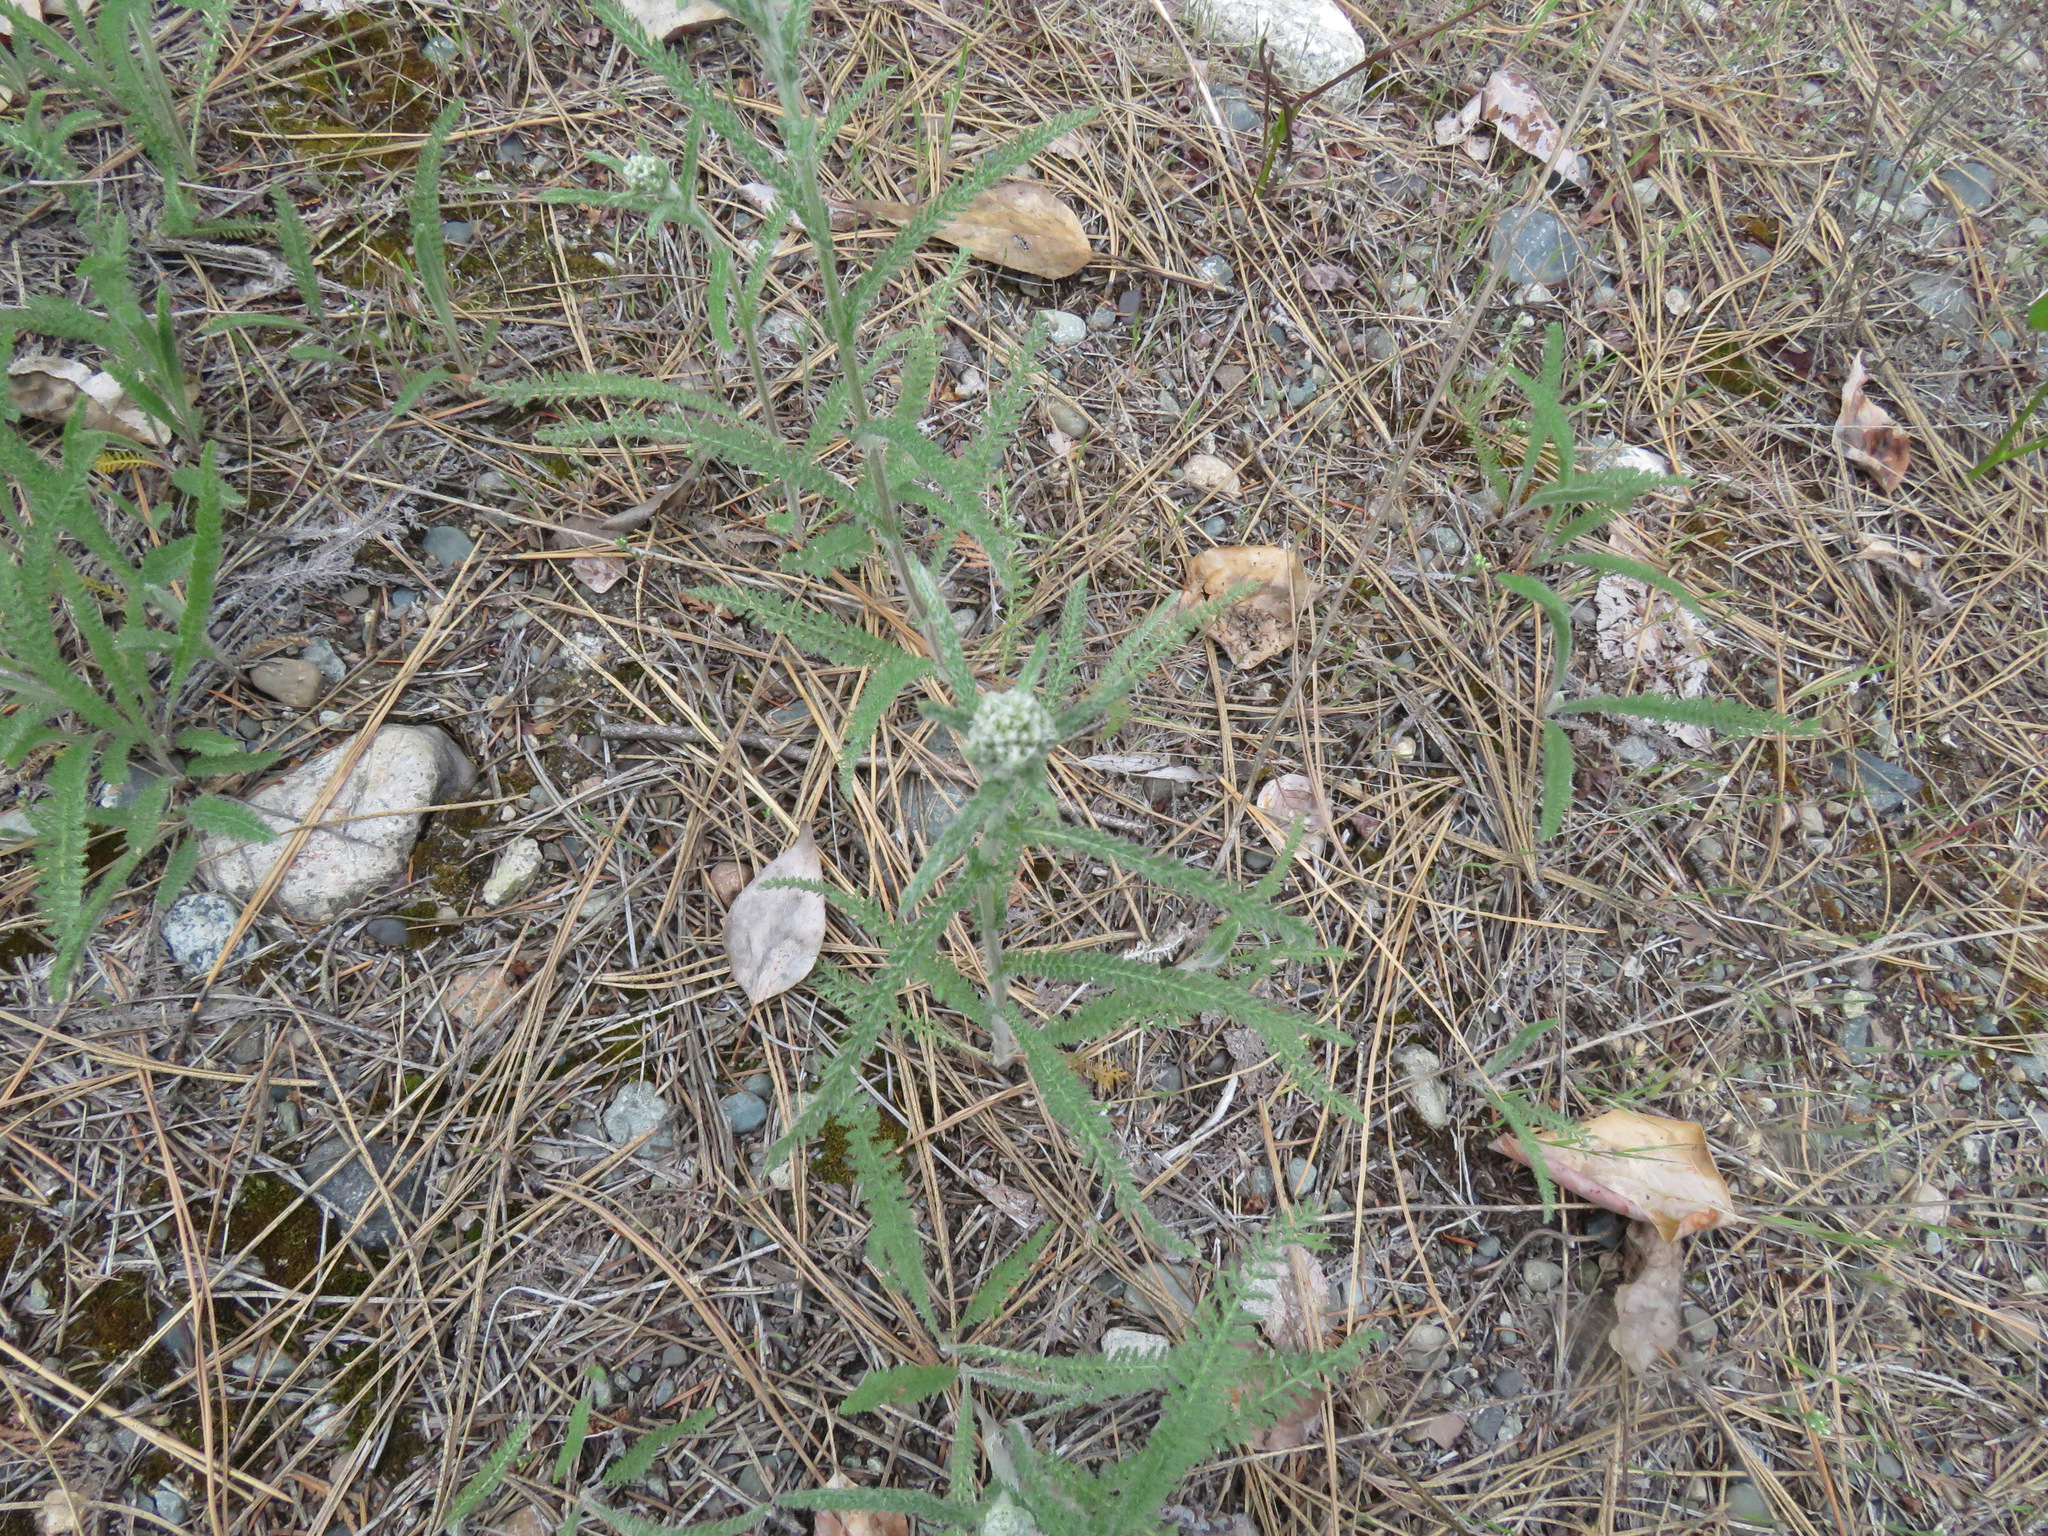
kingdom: Plantae
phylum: Tracheophyta
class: Magnoliopsida
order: Asterales
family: Asteraceae
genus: Achillea
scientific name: Achillea millefolium
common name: Yarrow
